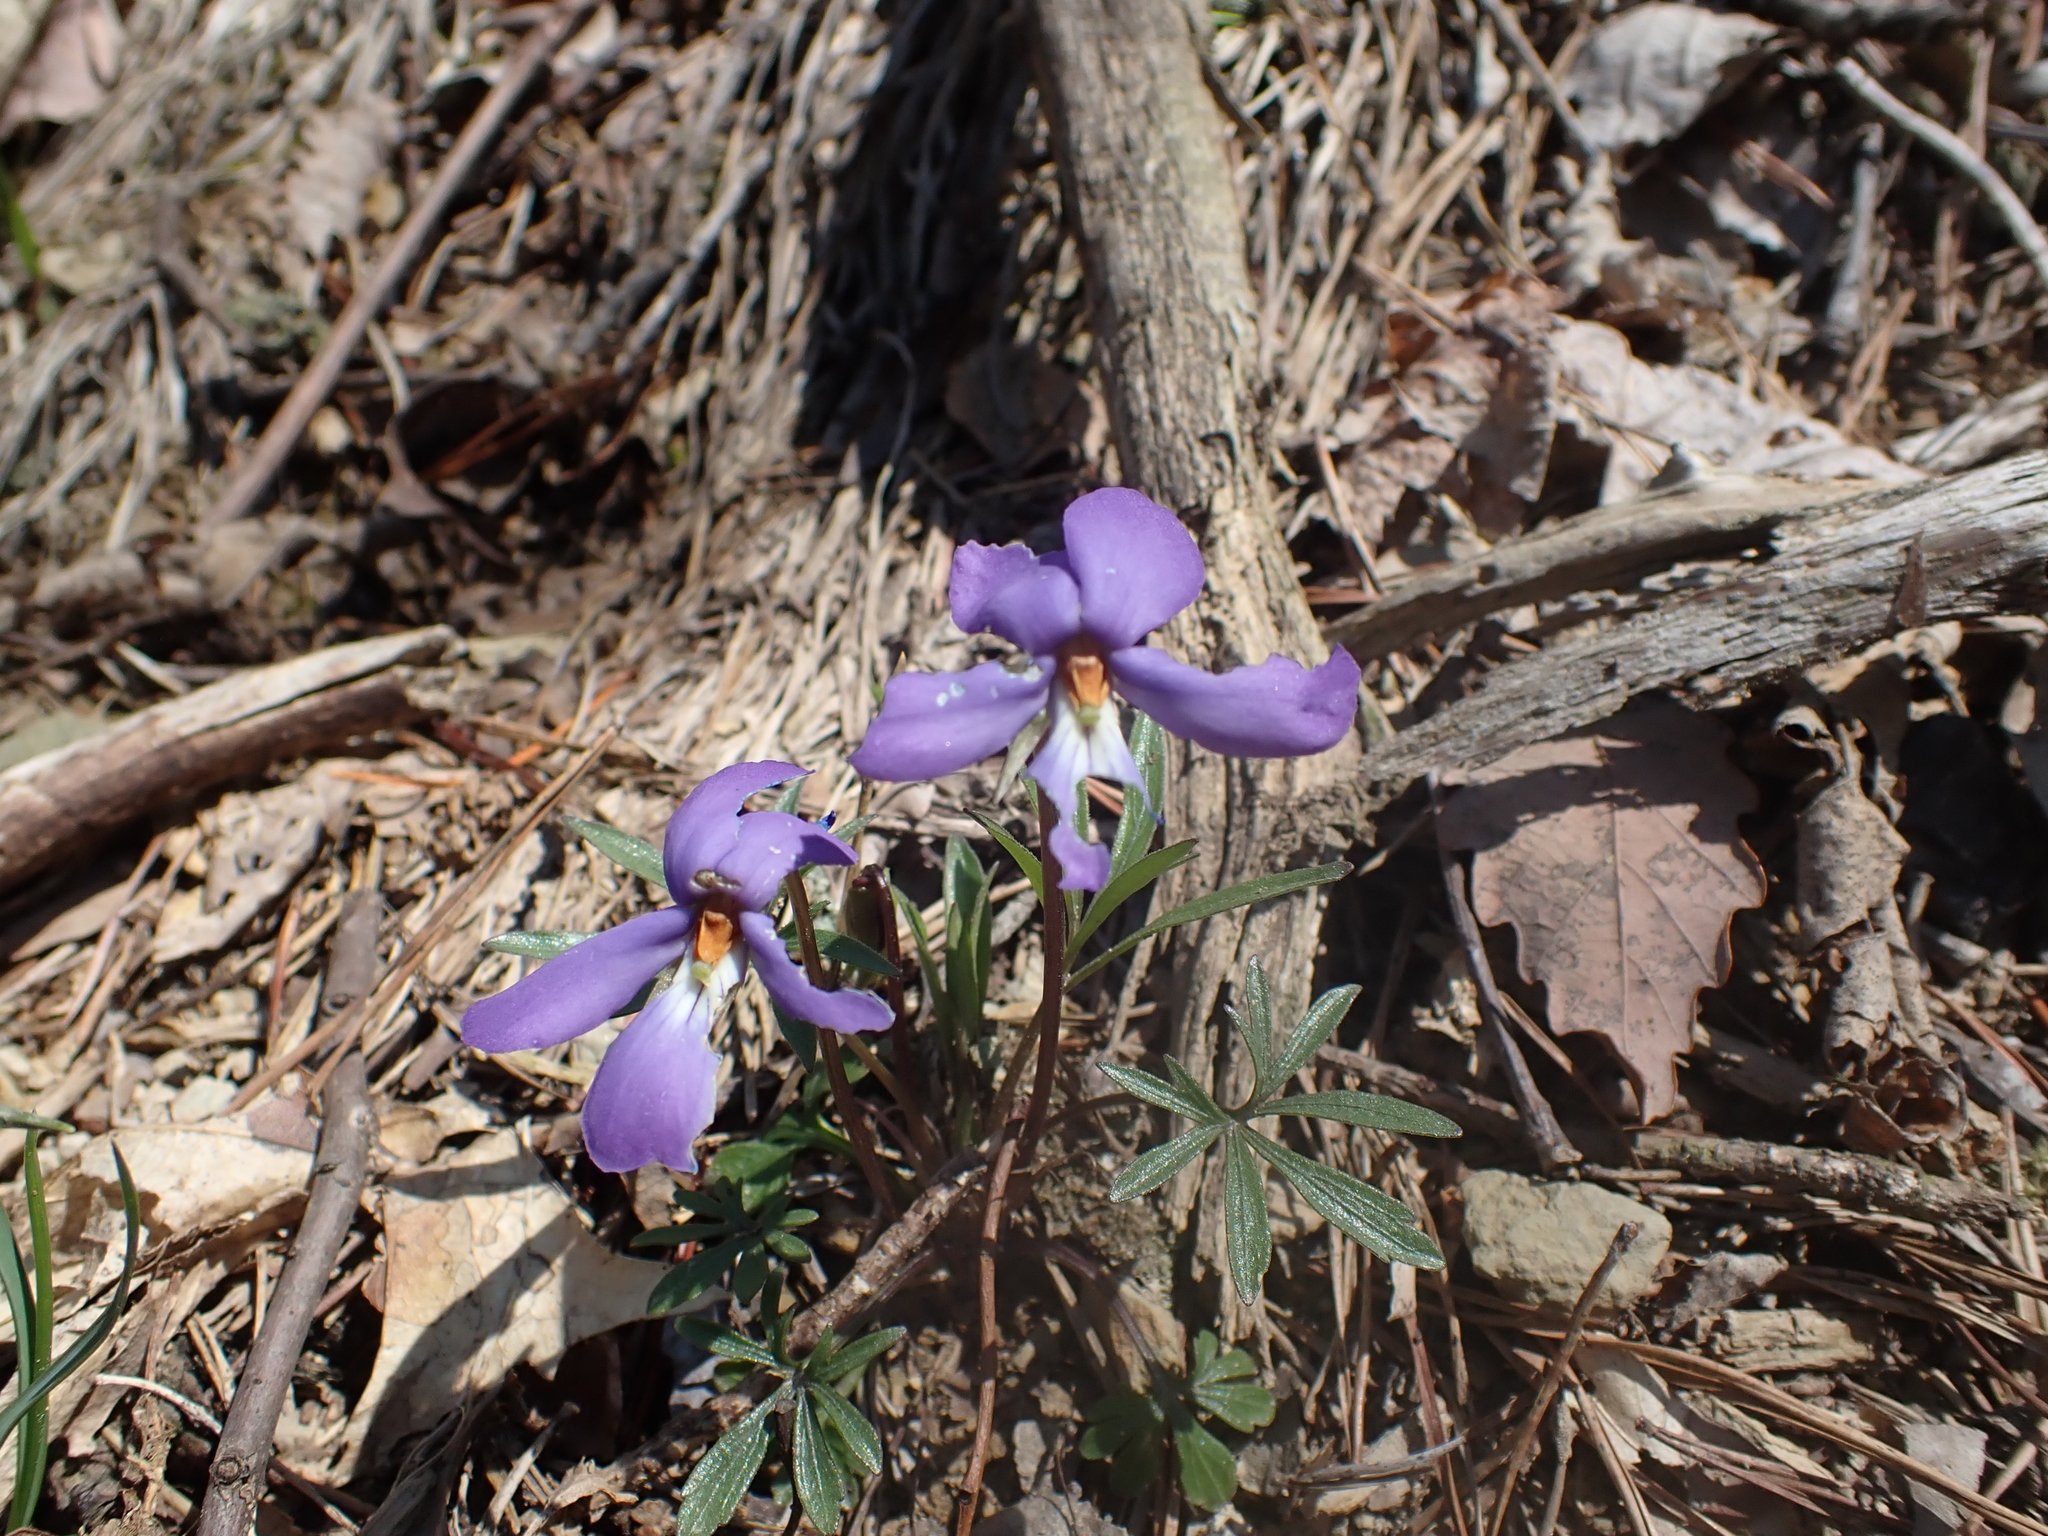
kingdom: Plantae
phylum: Tracheophyta
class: Magnoliopsida
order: Malpighiales
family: Violaceae
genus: Viola
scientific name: Viola pedata
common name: Pansy violet
